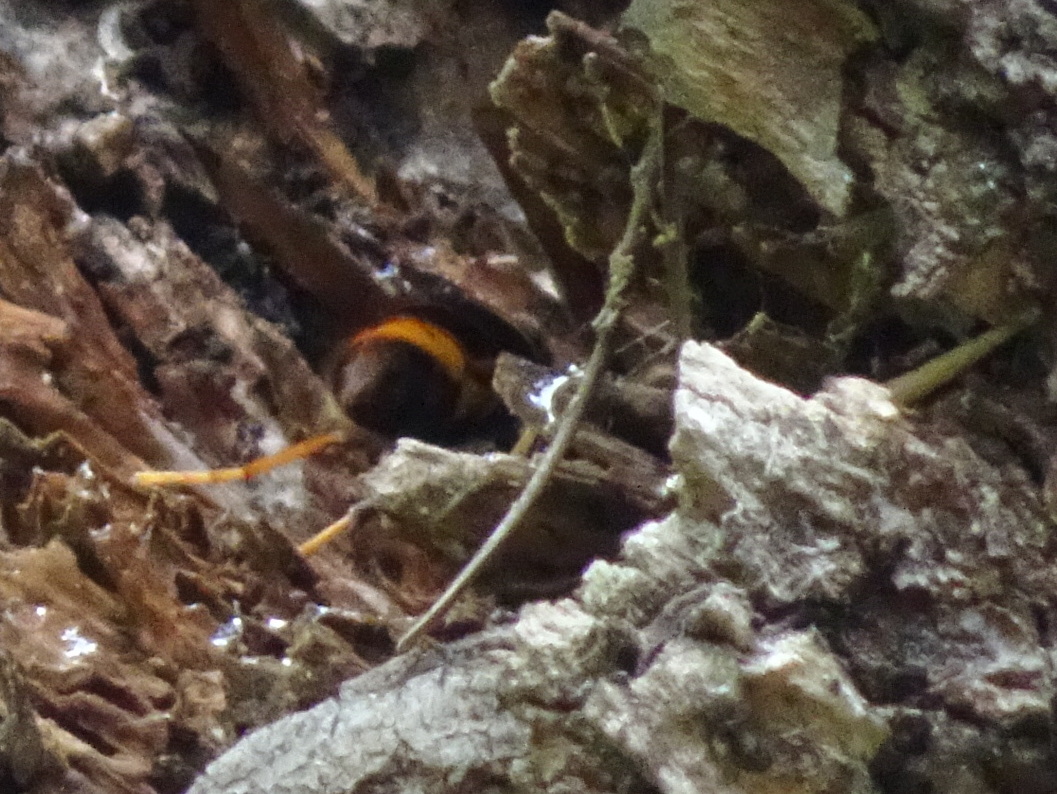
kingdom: Animalia
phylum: Arthropoda
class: Insecta
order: Hymenoptera
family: Vespidae
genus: Vespa
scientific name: Vespa velutina
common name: Asian hornet
